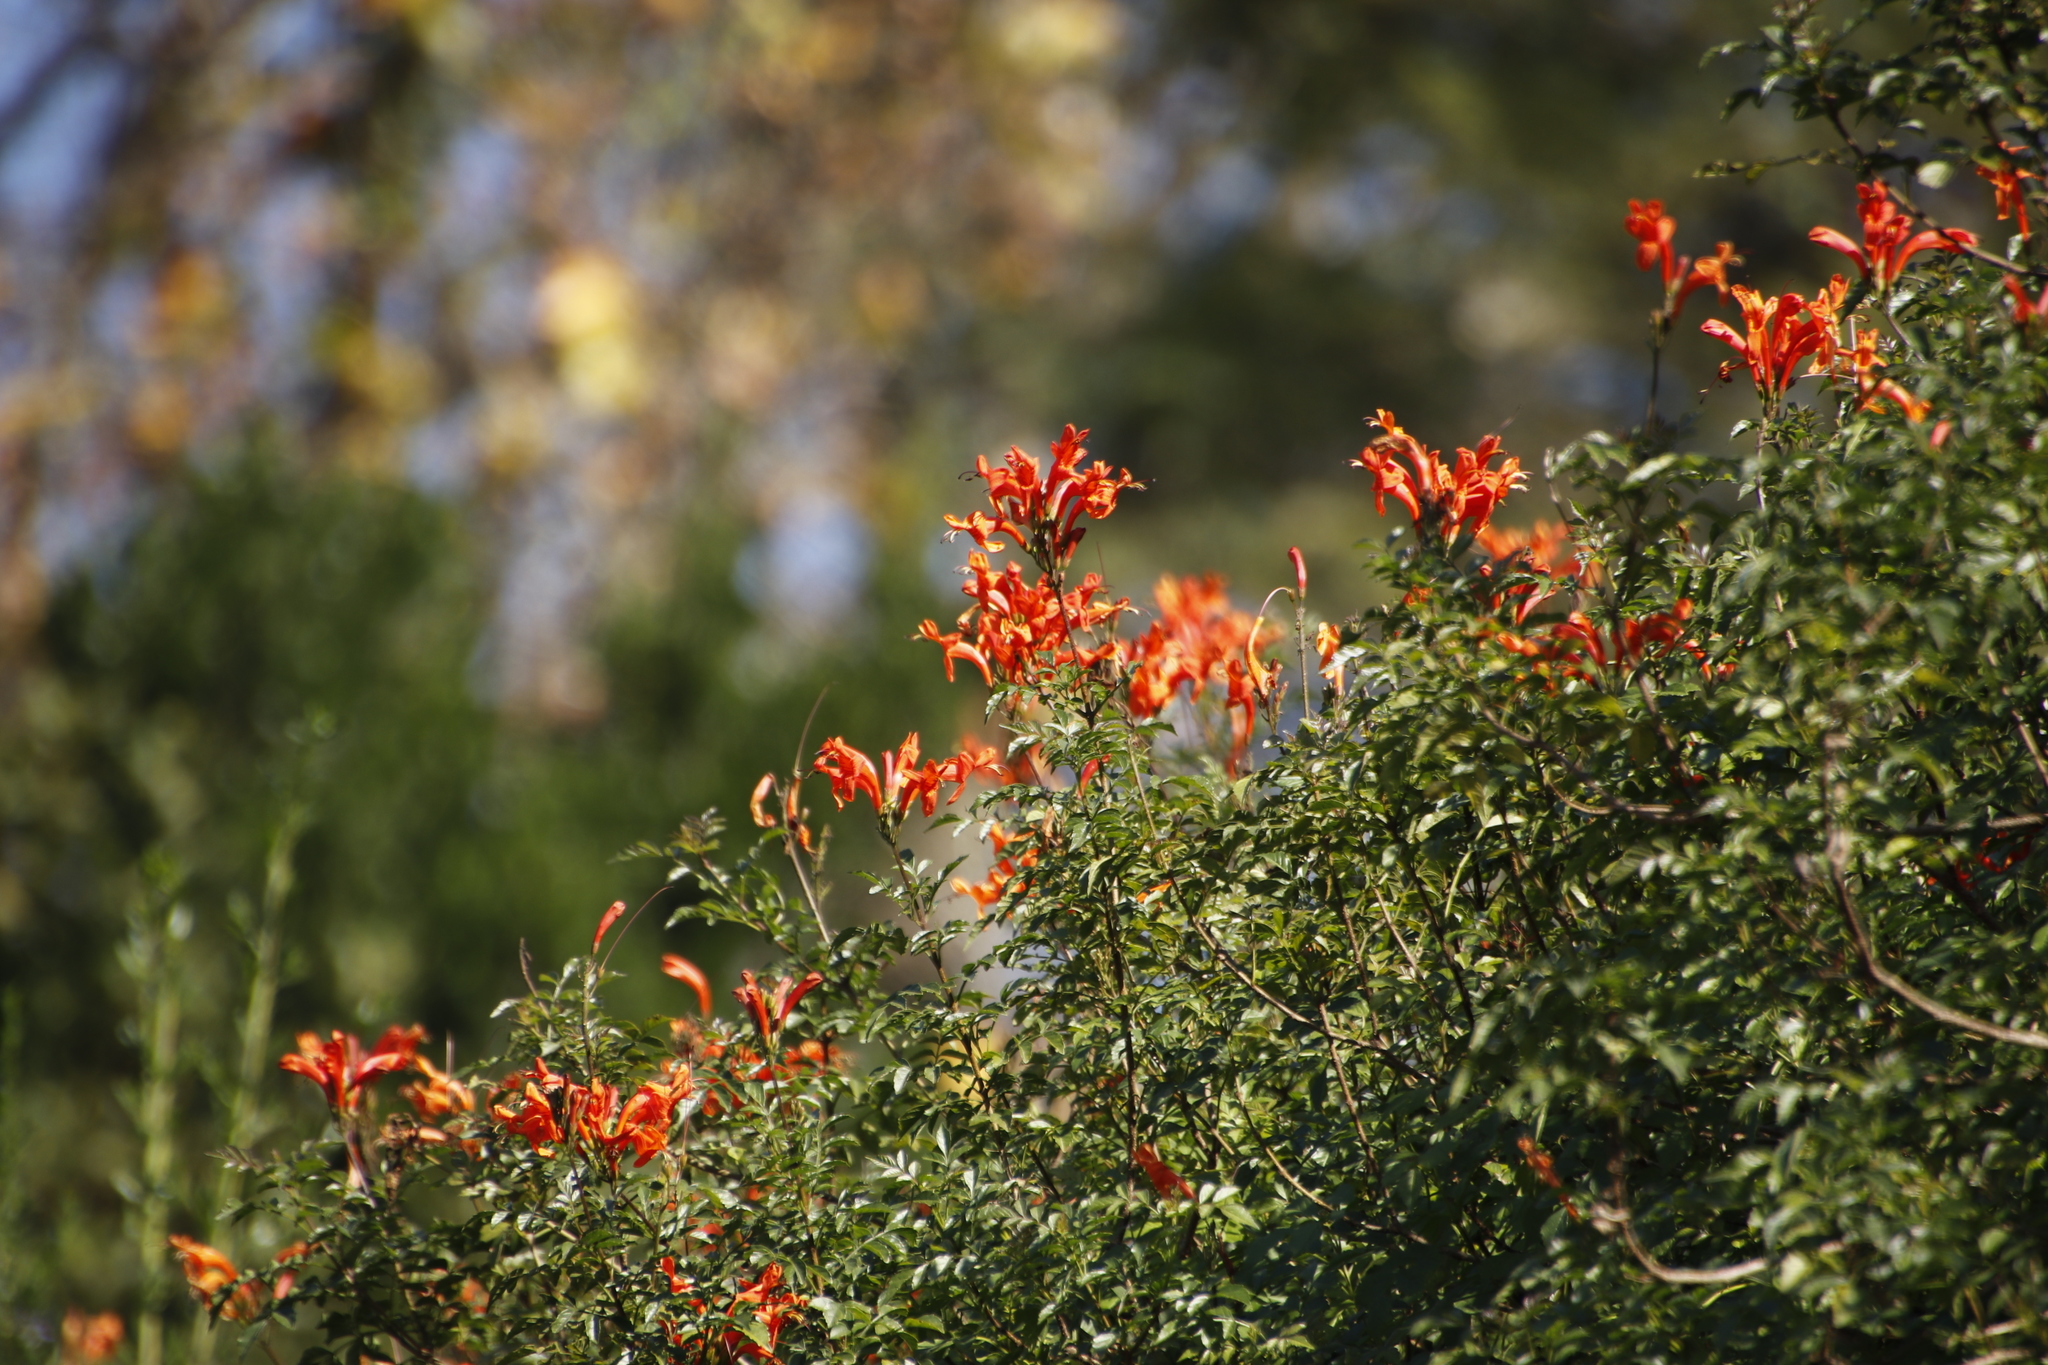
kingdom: Plantae
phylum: Tracheophyta
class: Magnoliopsida
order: Lamiales
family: Bignoniaceae
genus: Tecomaria
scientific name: Tecomaria capensis
